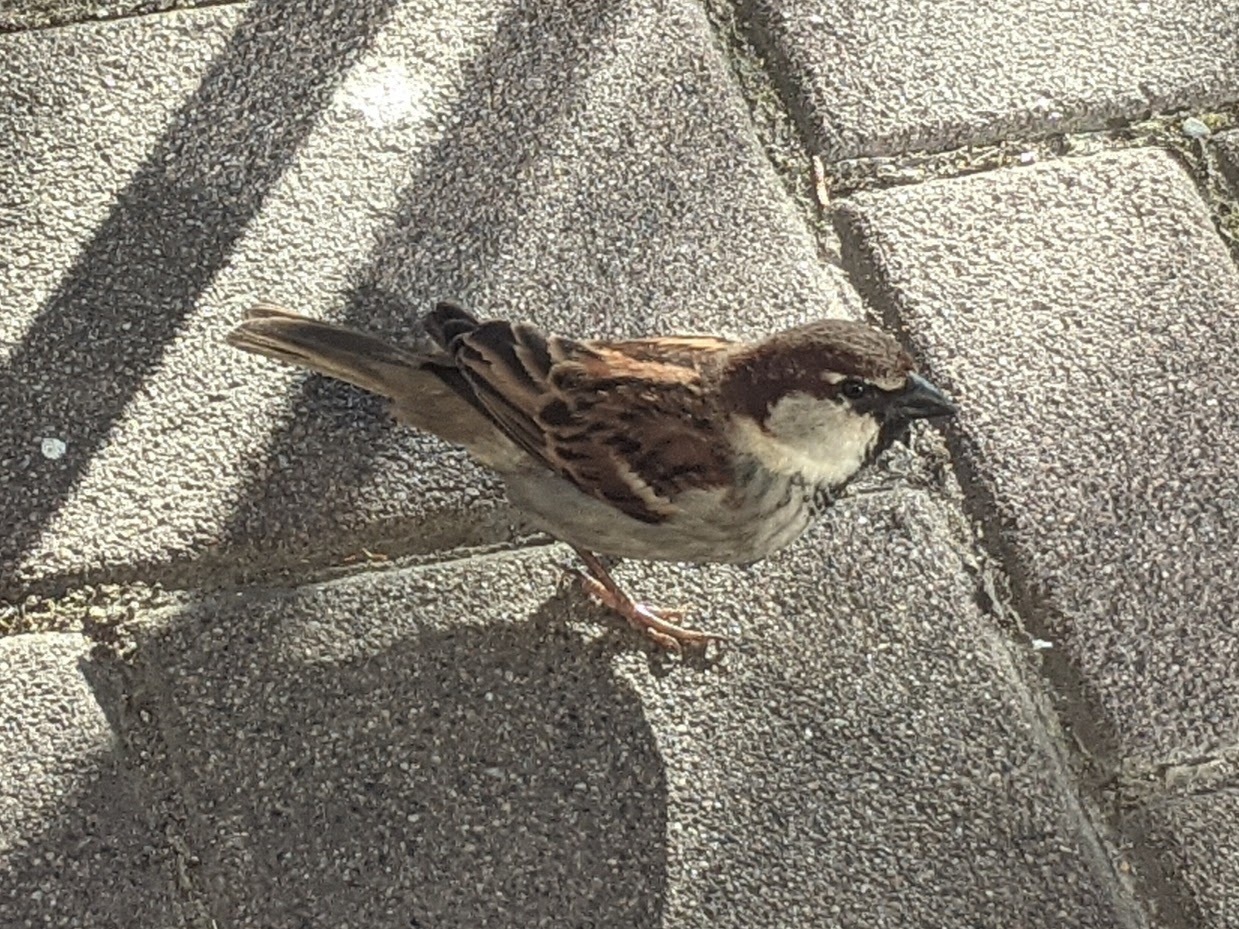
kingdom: Animalia
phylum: Chordata
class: Aves
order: Passeriformes
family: Passeridae
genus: Passer
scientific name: Passer italiae
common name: Italian sparrow
